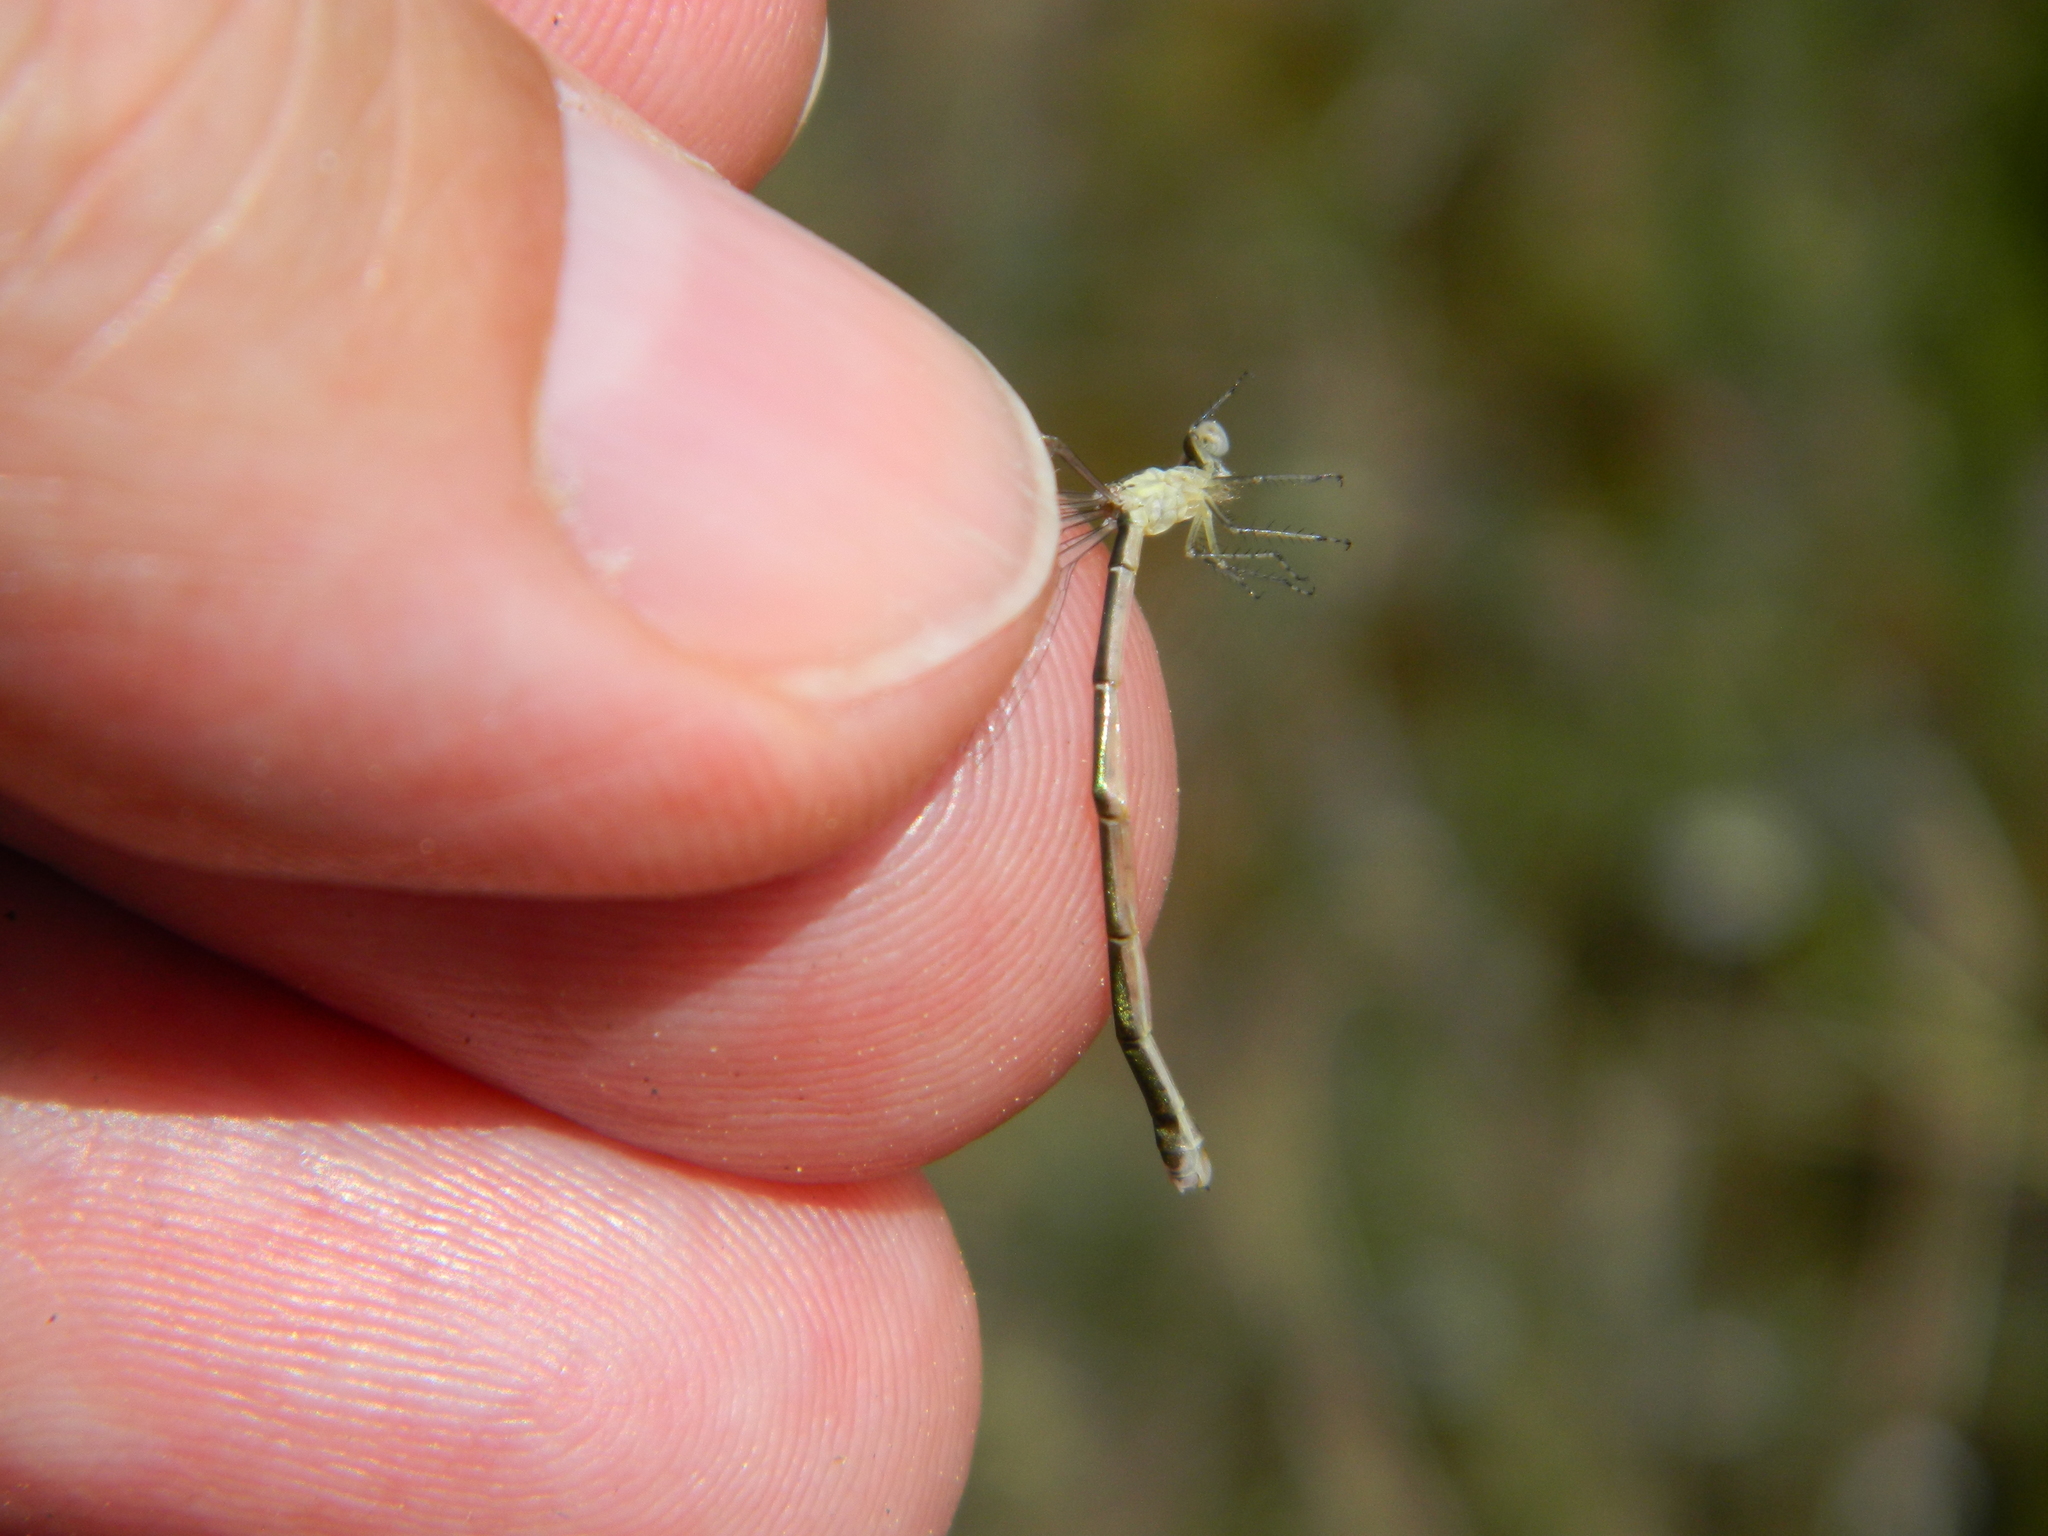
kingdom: Animalia
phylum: Arthropoda
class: Insecta
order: Odonata
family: Coenagrionidae
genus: Nehalennia
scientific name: Nehalennia gracilis
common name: Sphagnum sprite
